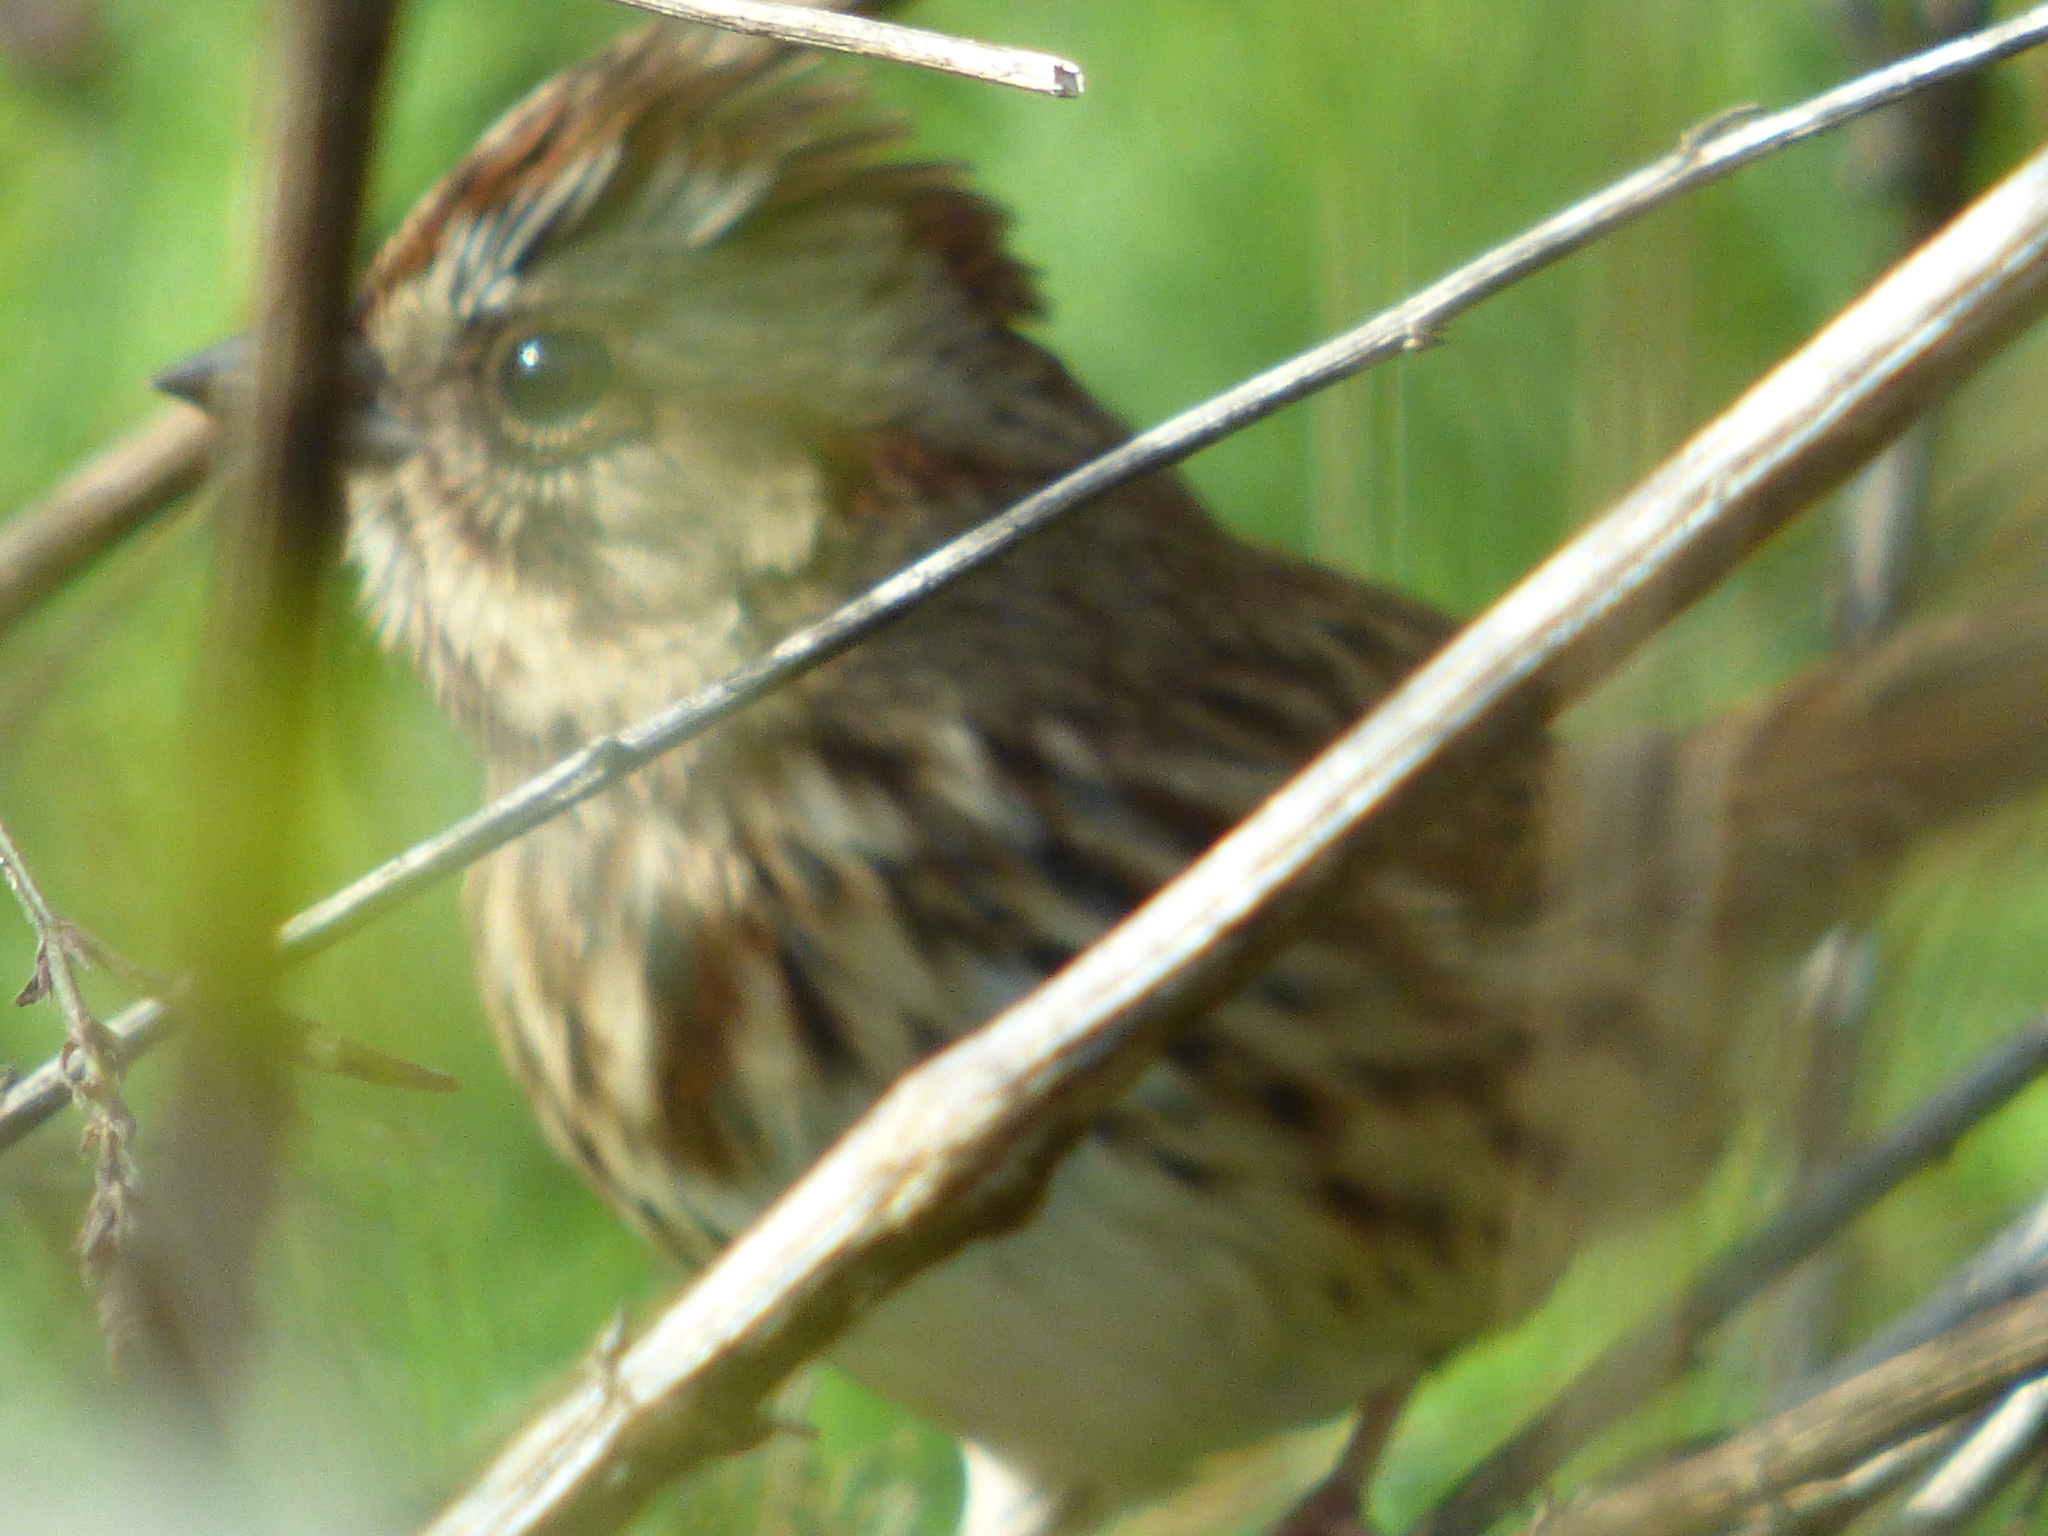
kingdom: Animalia
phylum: Chordata
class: Aves
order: Passeriformes
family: Passerellidae
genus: Melospiza
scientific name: Melospiza melodia
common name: Song sparrow
